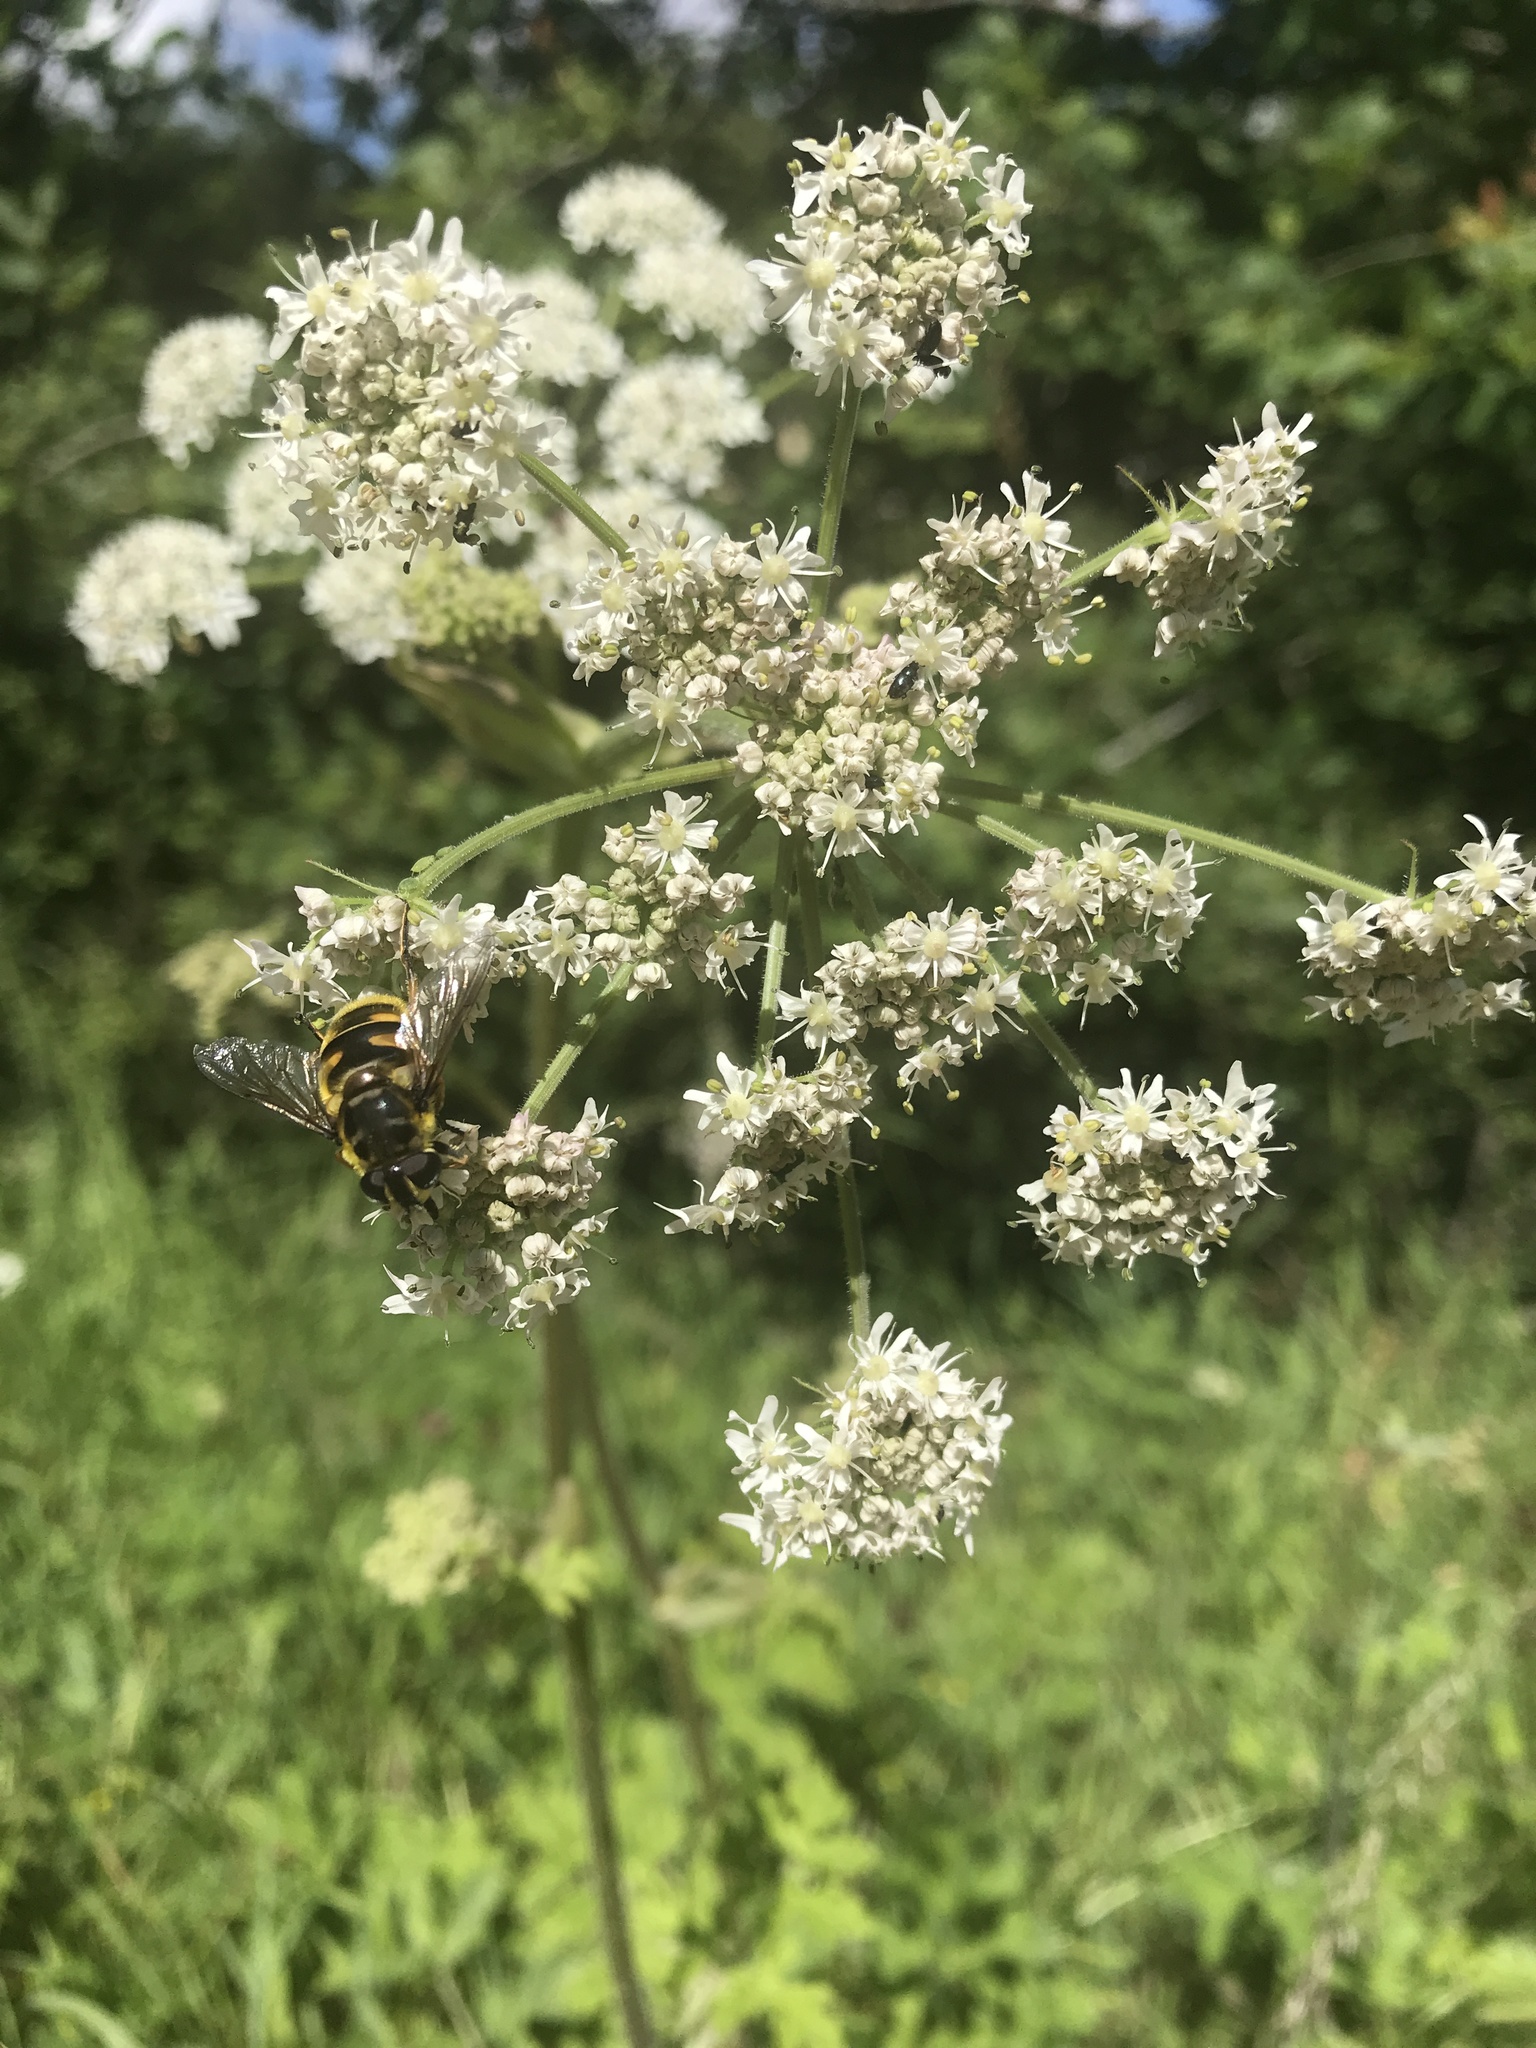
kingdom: Animalia
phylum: Arthropoda
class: Insecta
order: Diptera
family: Syrphidae
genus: Myathropa
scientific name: Myathropa florea
